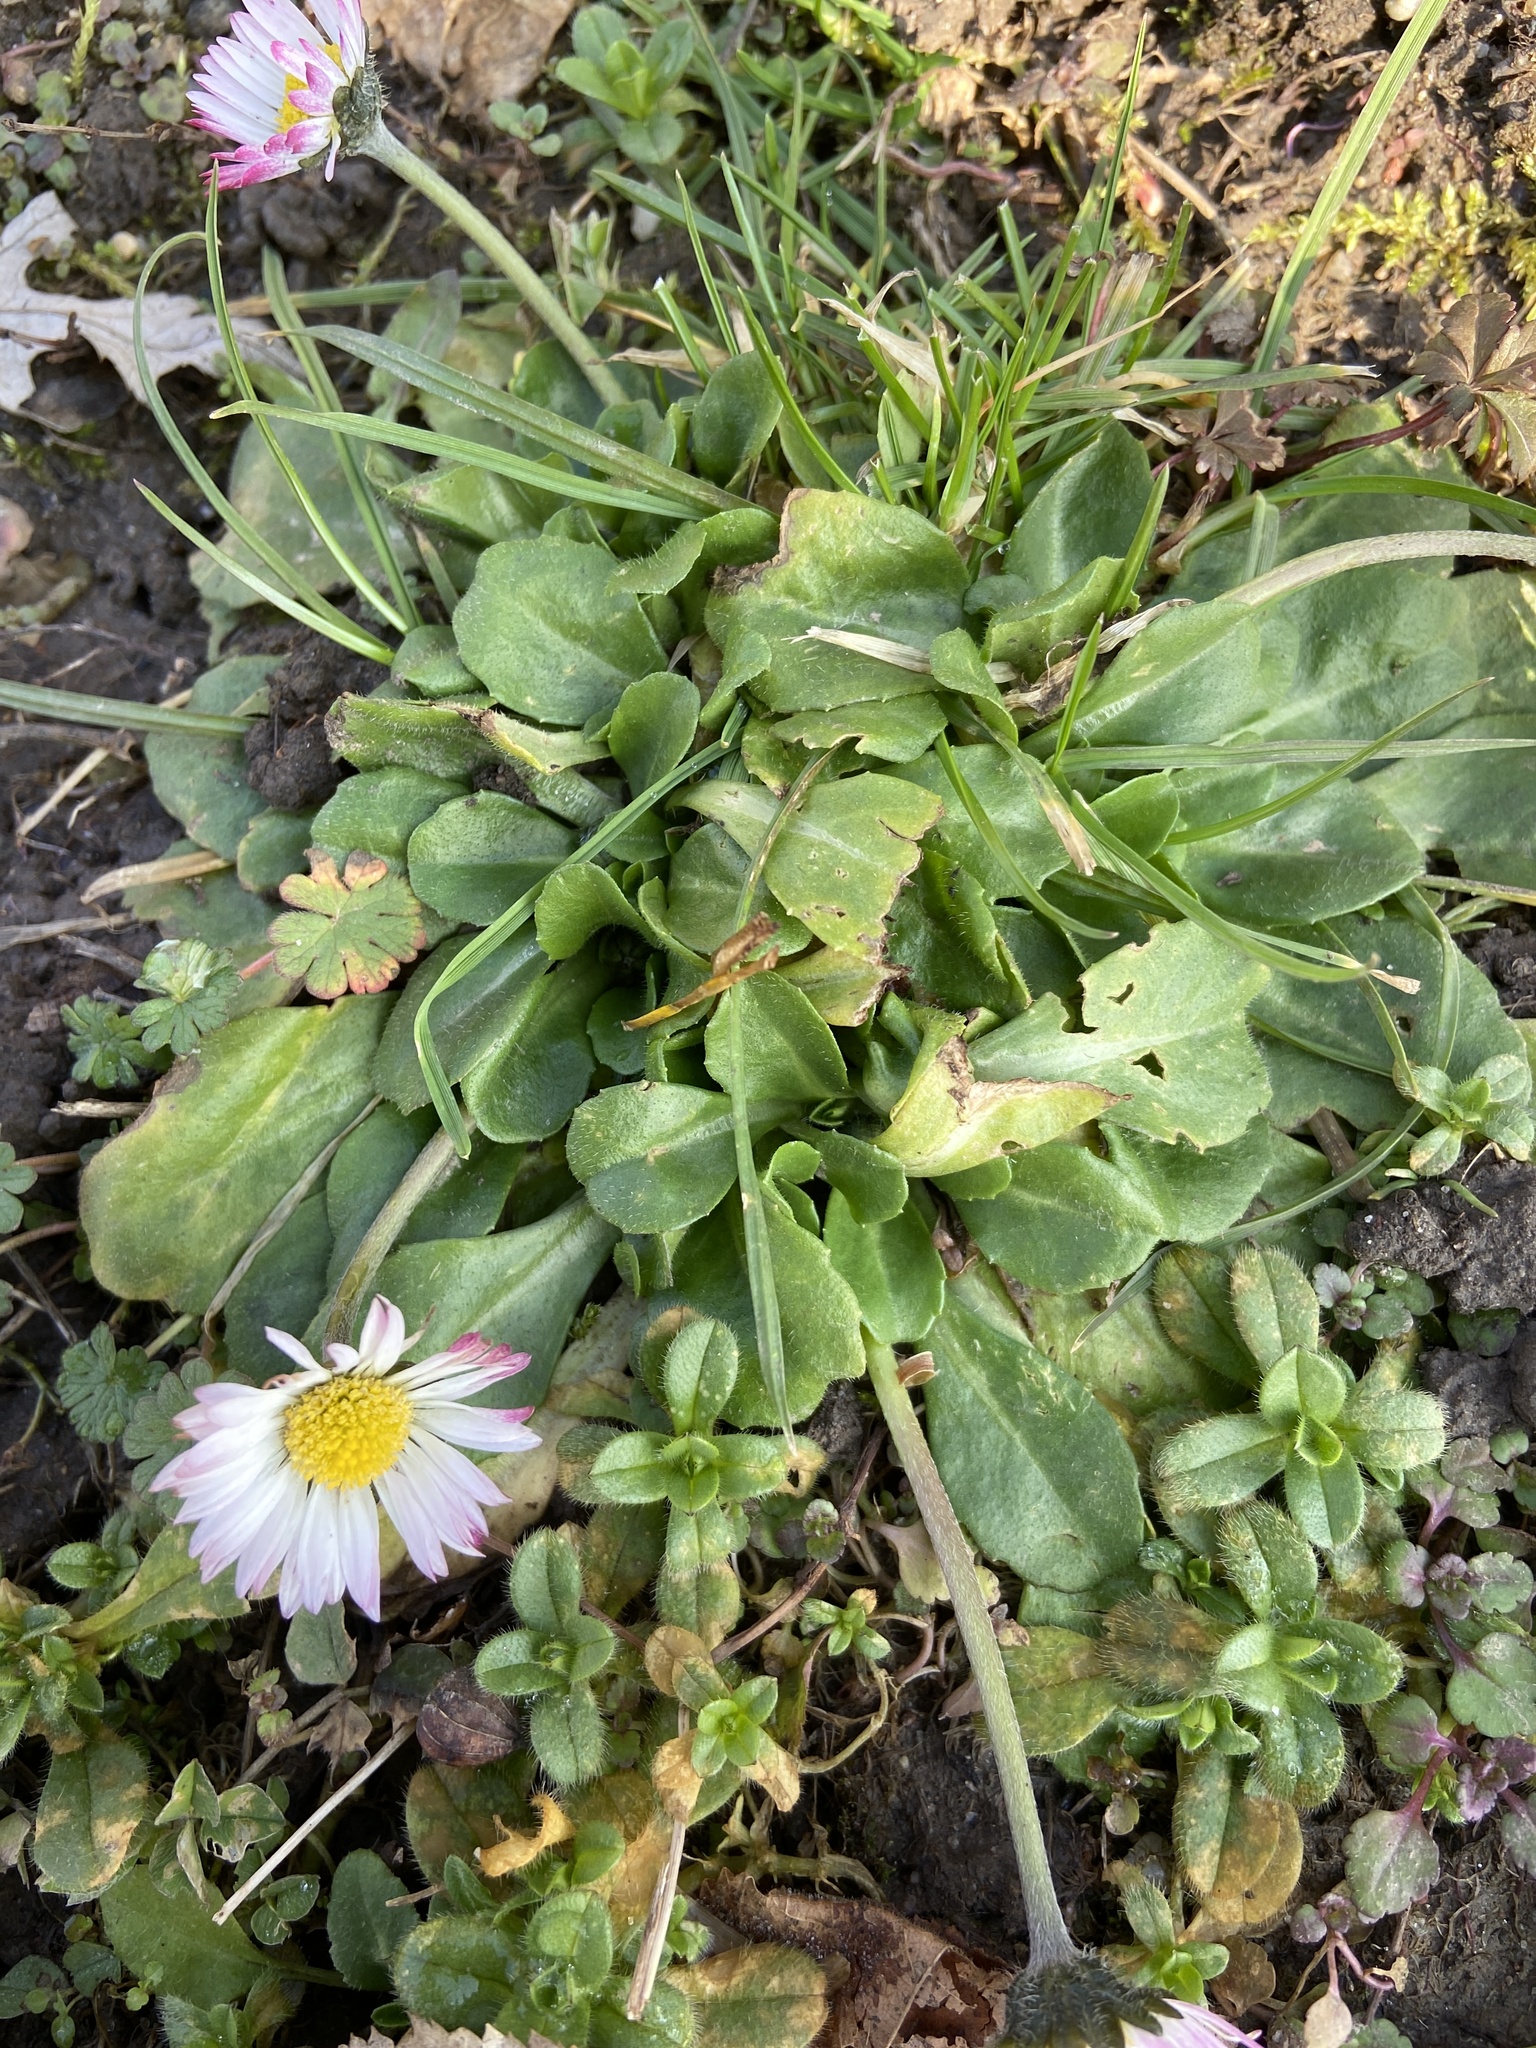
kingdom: Plantae
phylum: Tracheophyta
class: Magnoliopsida
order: Asterales
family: Asteraceae
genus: Bellis
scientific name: Bellis perennis
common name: Lawndaisy
